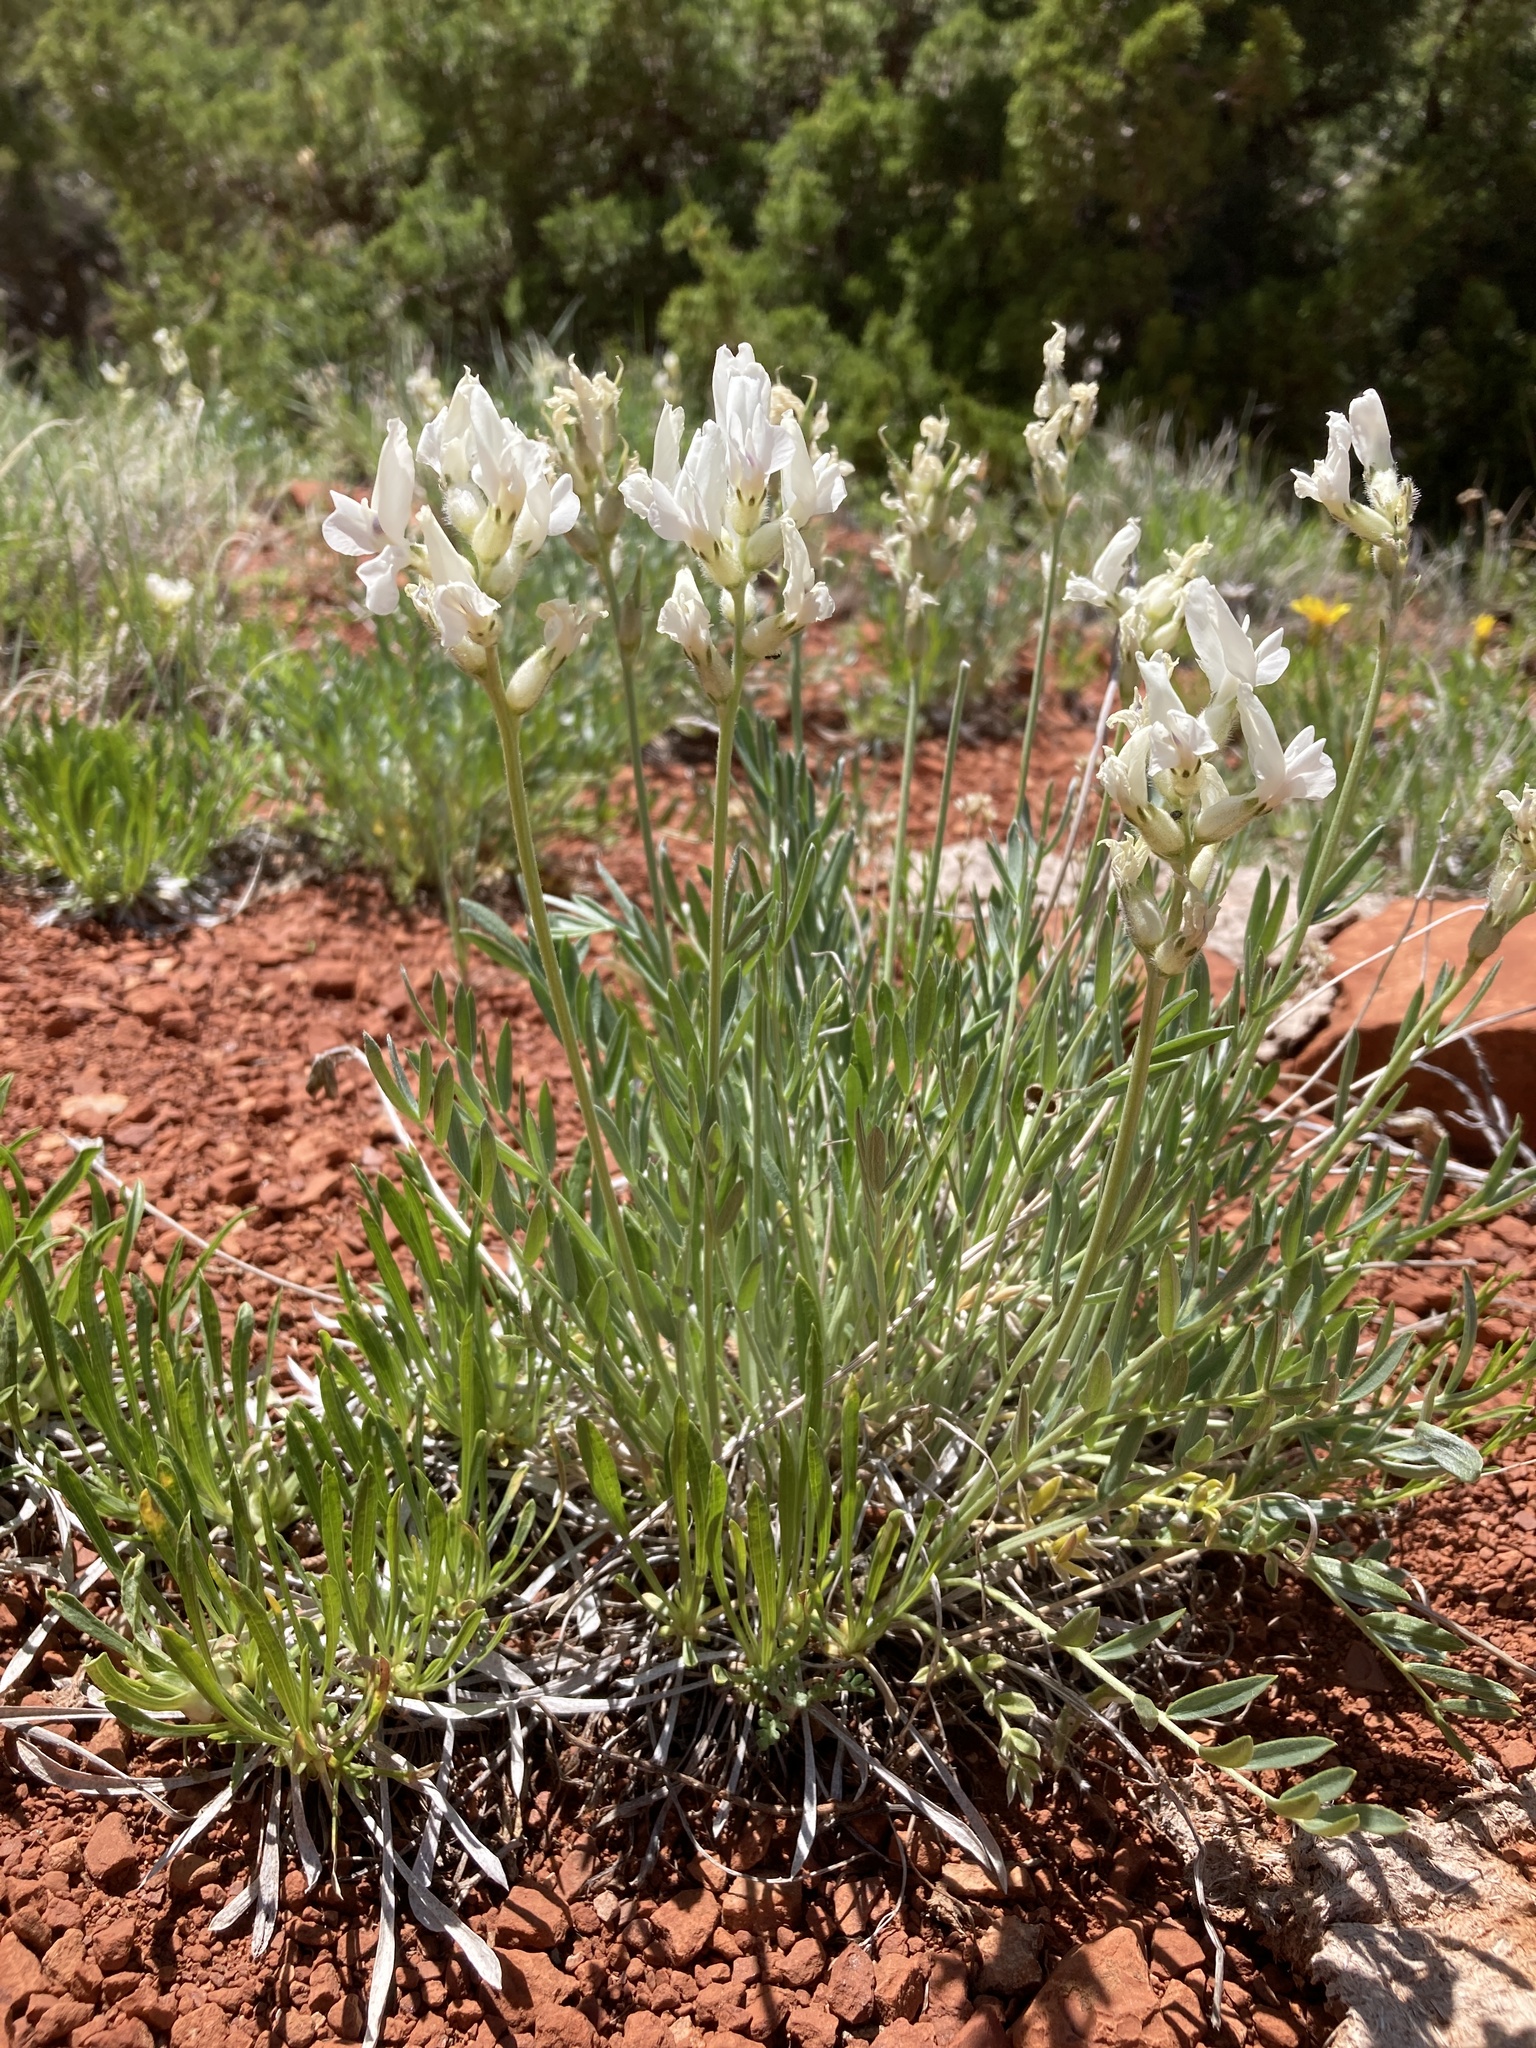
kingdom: Plantae
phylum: Tracheophyta
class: Magnoliopsida
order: Fabales
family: Fabaceae
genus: Oxytropis
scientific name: Oxytropis sericea
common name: Silky locoweed
